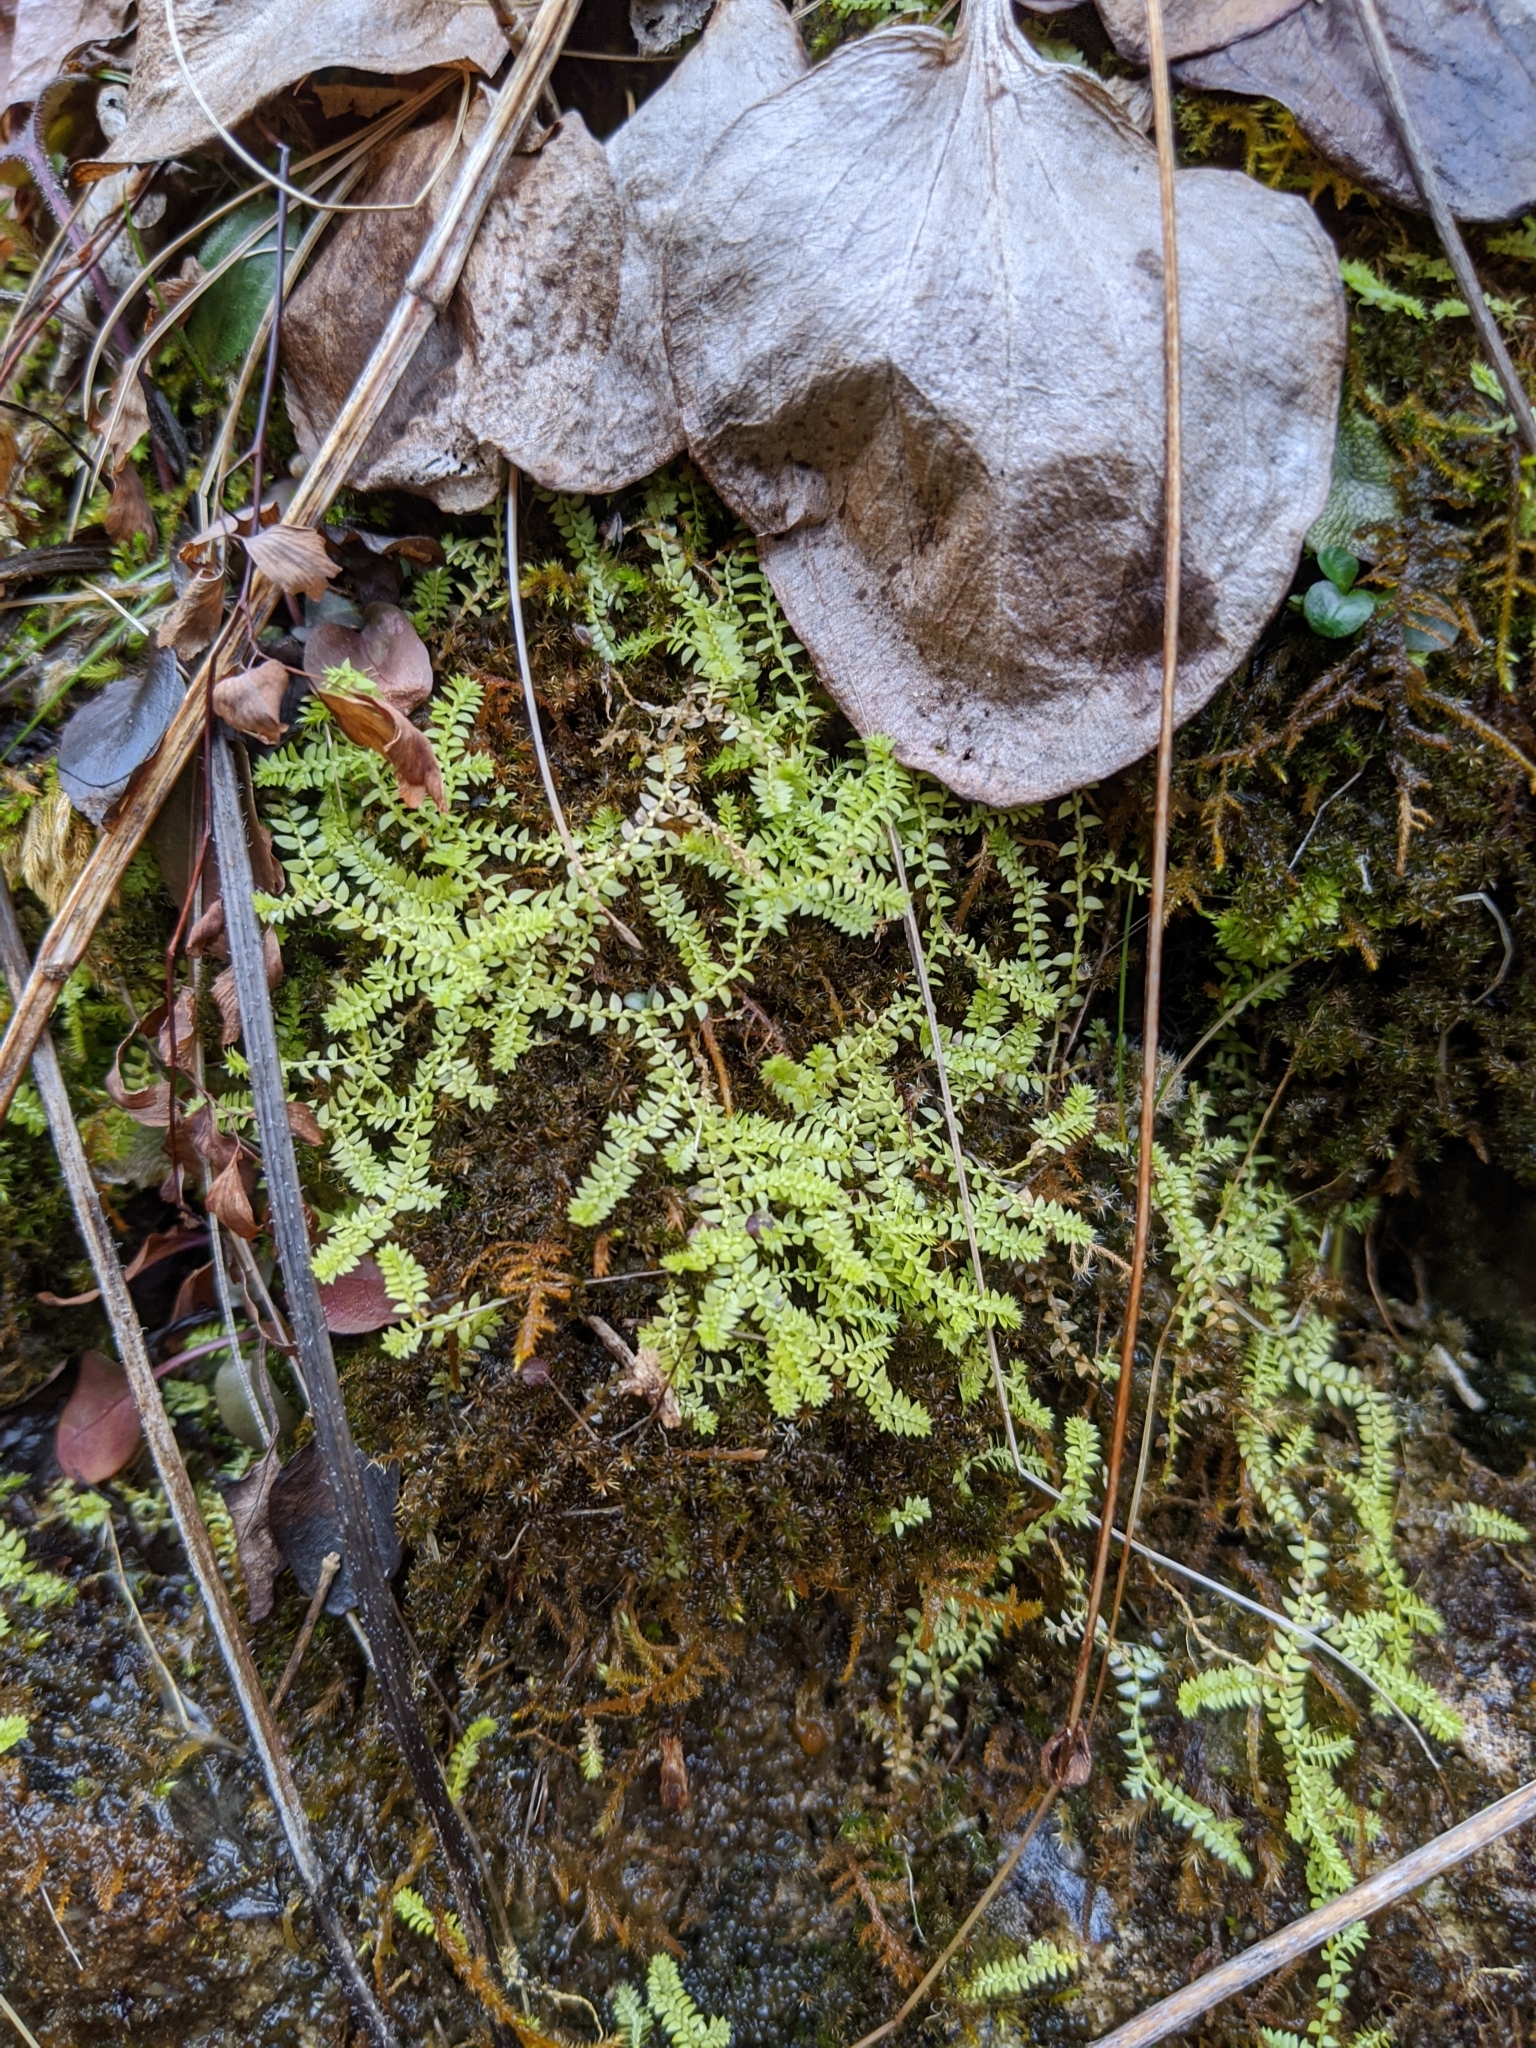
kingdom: Plantae
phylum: Tracheophyta
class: Lycopodiopsida
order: Selaginellales
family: Selaginellaceae
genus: Selaginella
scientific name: Selaginella eclipes
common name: Buck's meadow spikemoss
